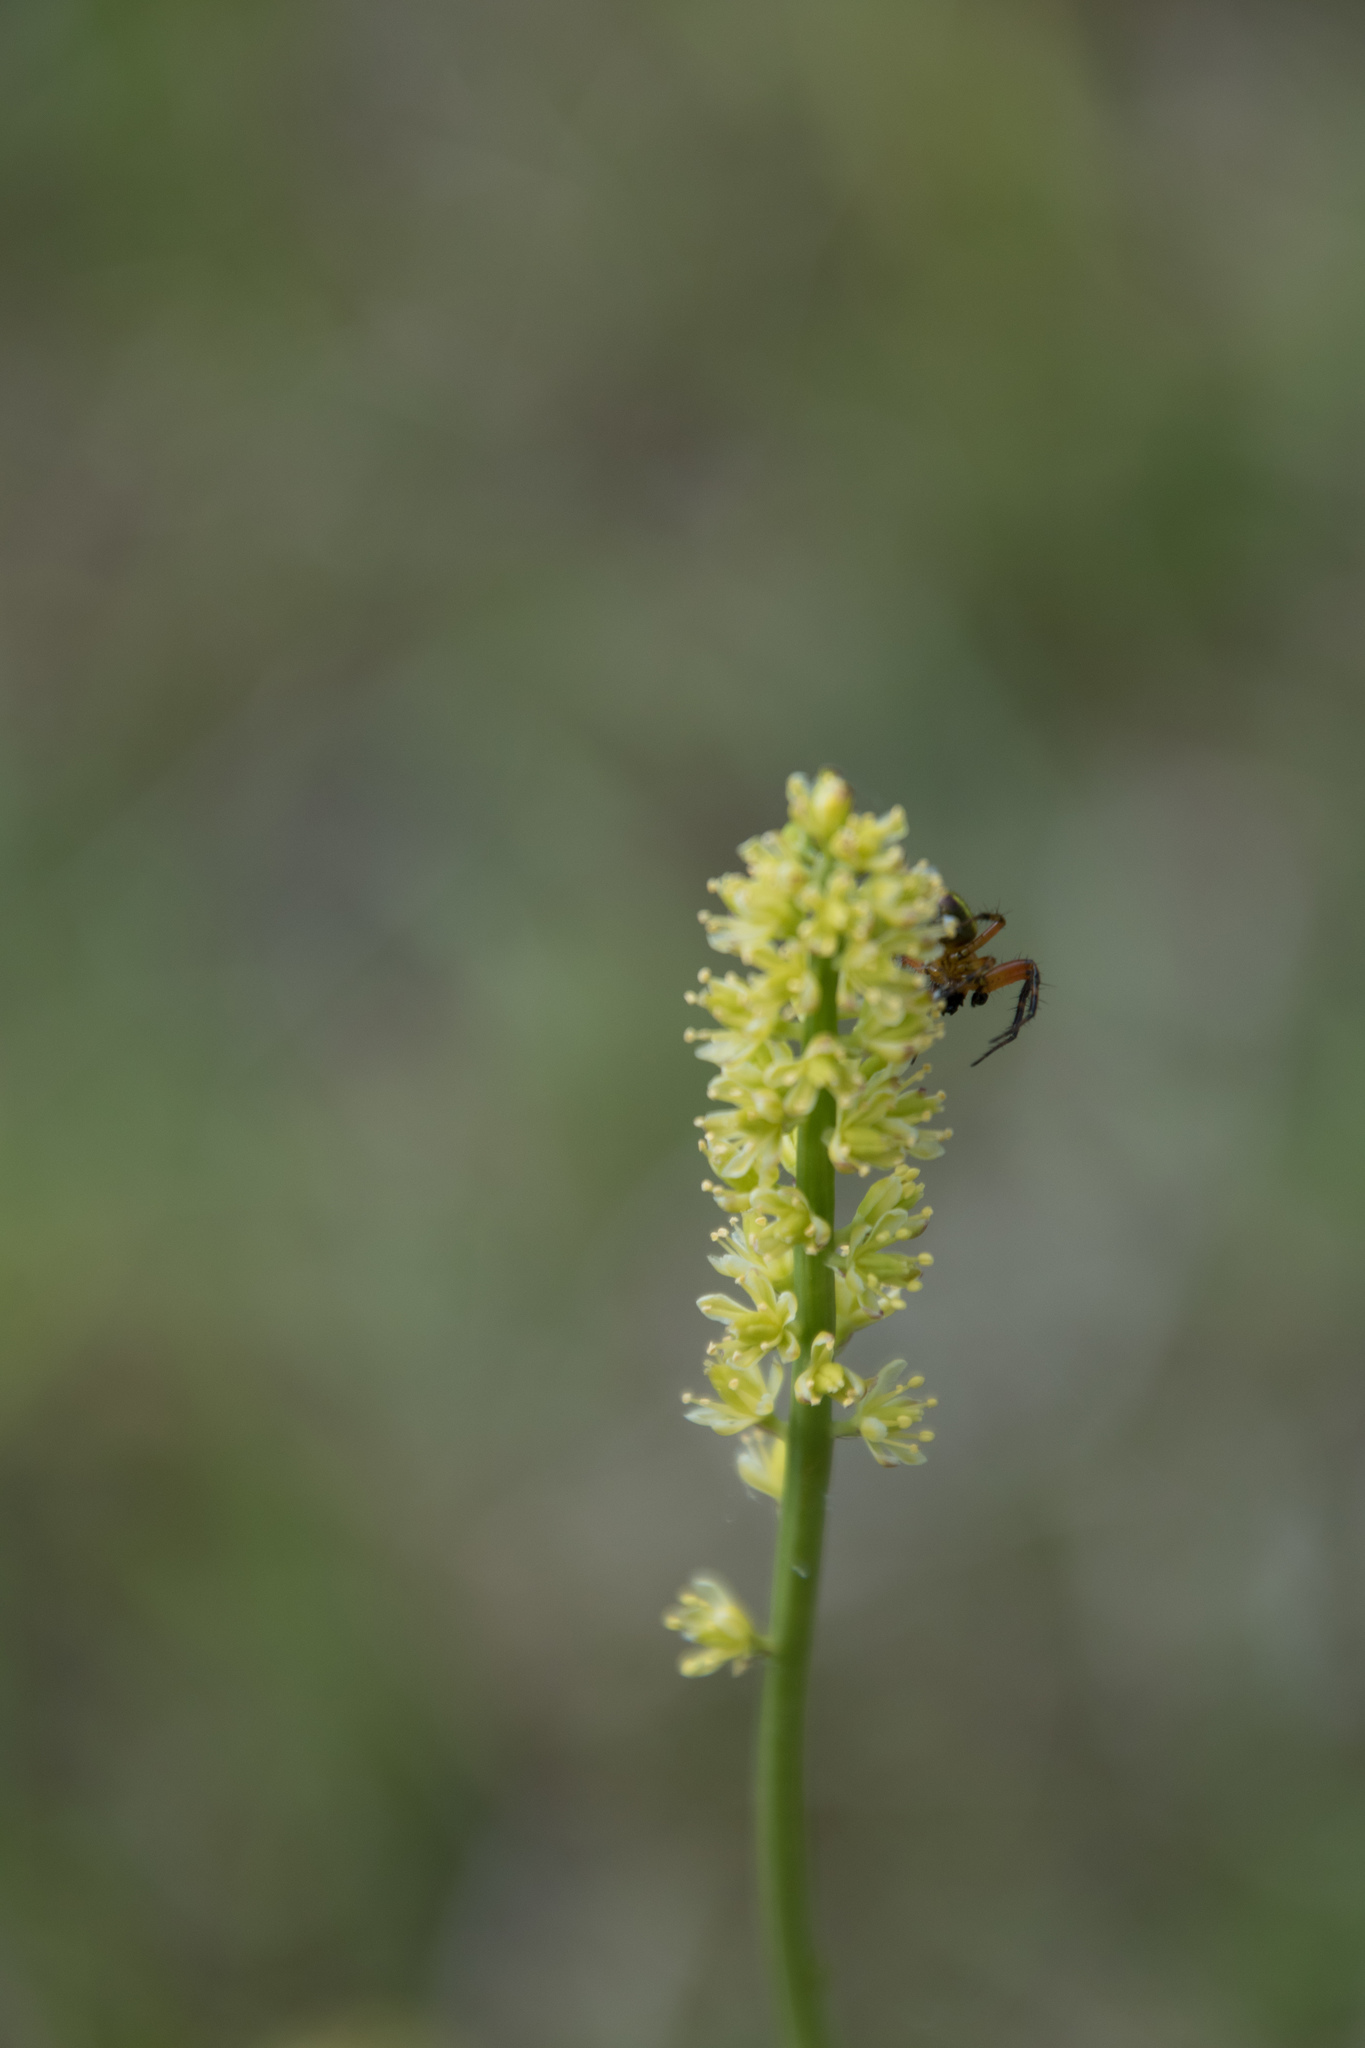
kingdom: Plantae
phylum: Tracheophyta
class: Liliopsida
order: Alismatales
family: Tofieldiaceae
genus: Tofieldia
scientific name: Tofieldia calyculata
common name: German-asphodel
